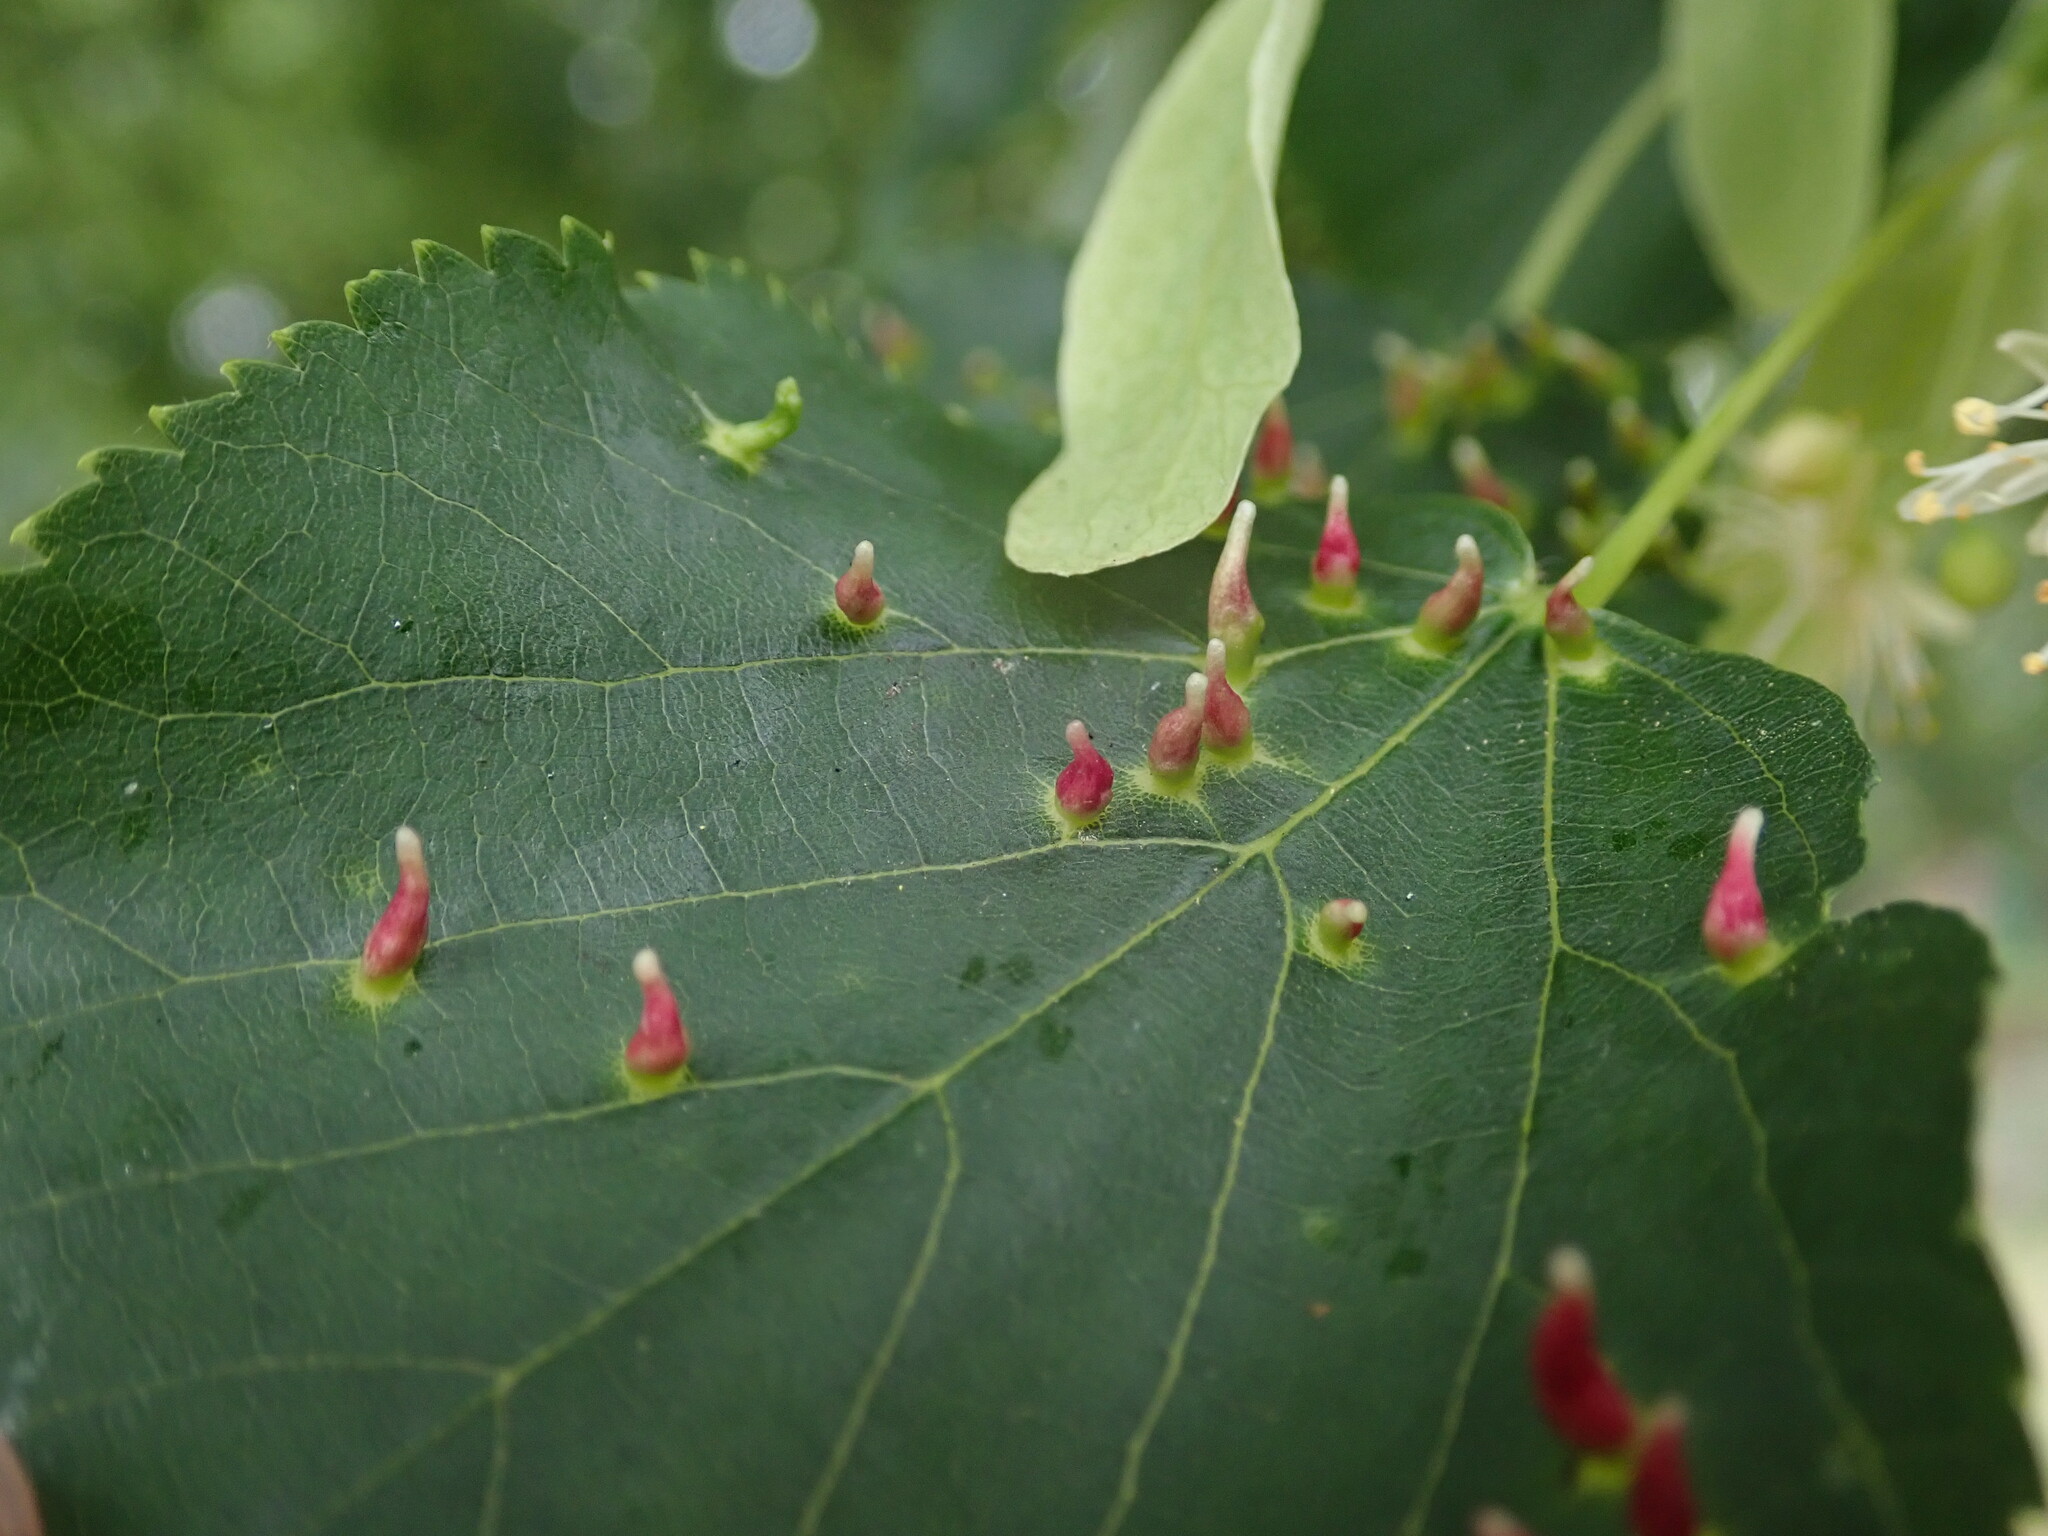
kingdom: Animalia
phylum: Arthropoda
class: Arachnida
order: Trombidiformes
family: Eriophyidae
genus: Eriophyes
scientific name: Eriophyes tiliae
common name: Red nail gall mite
